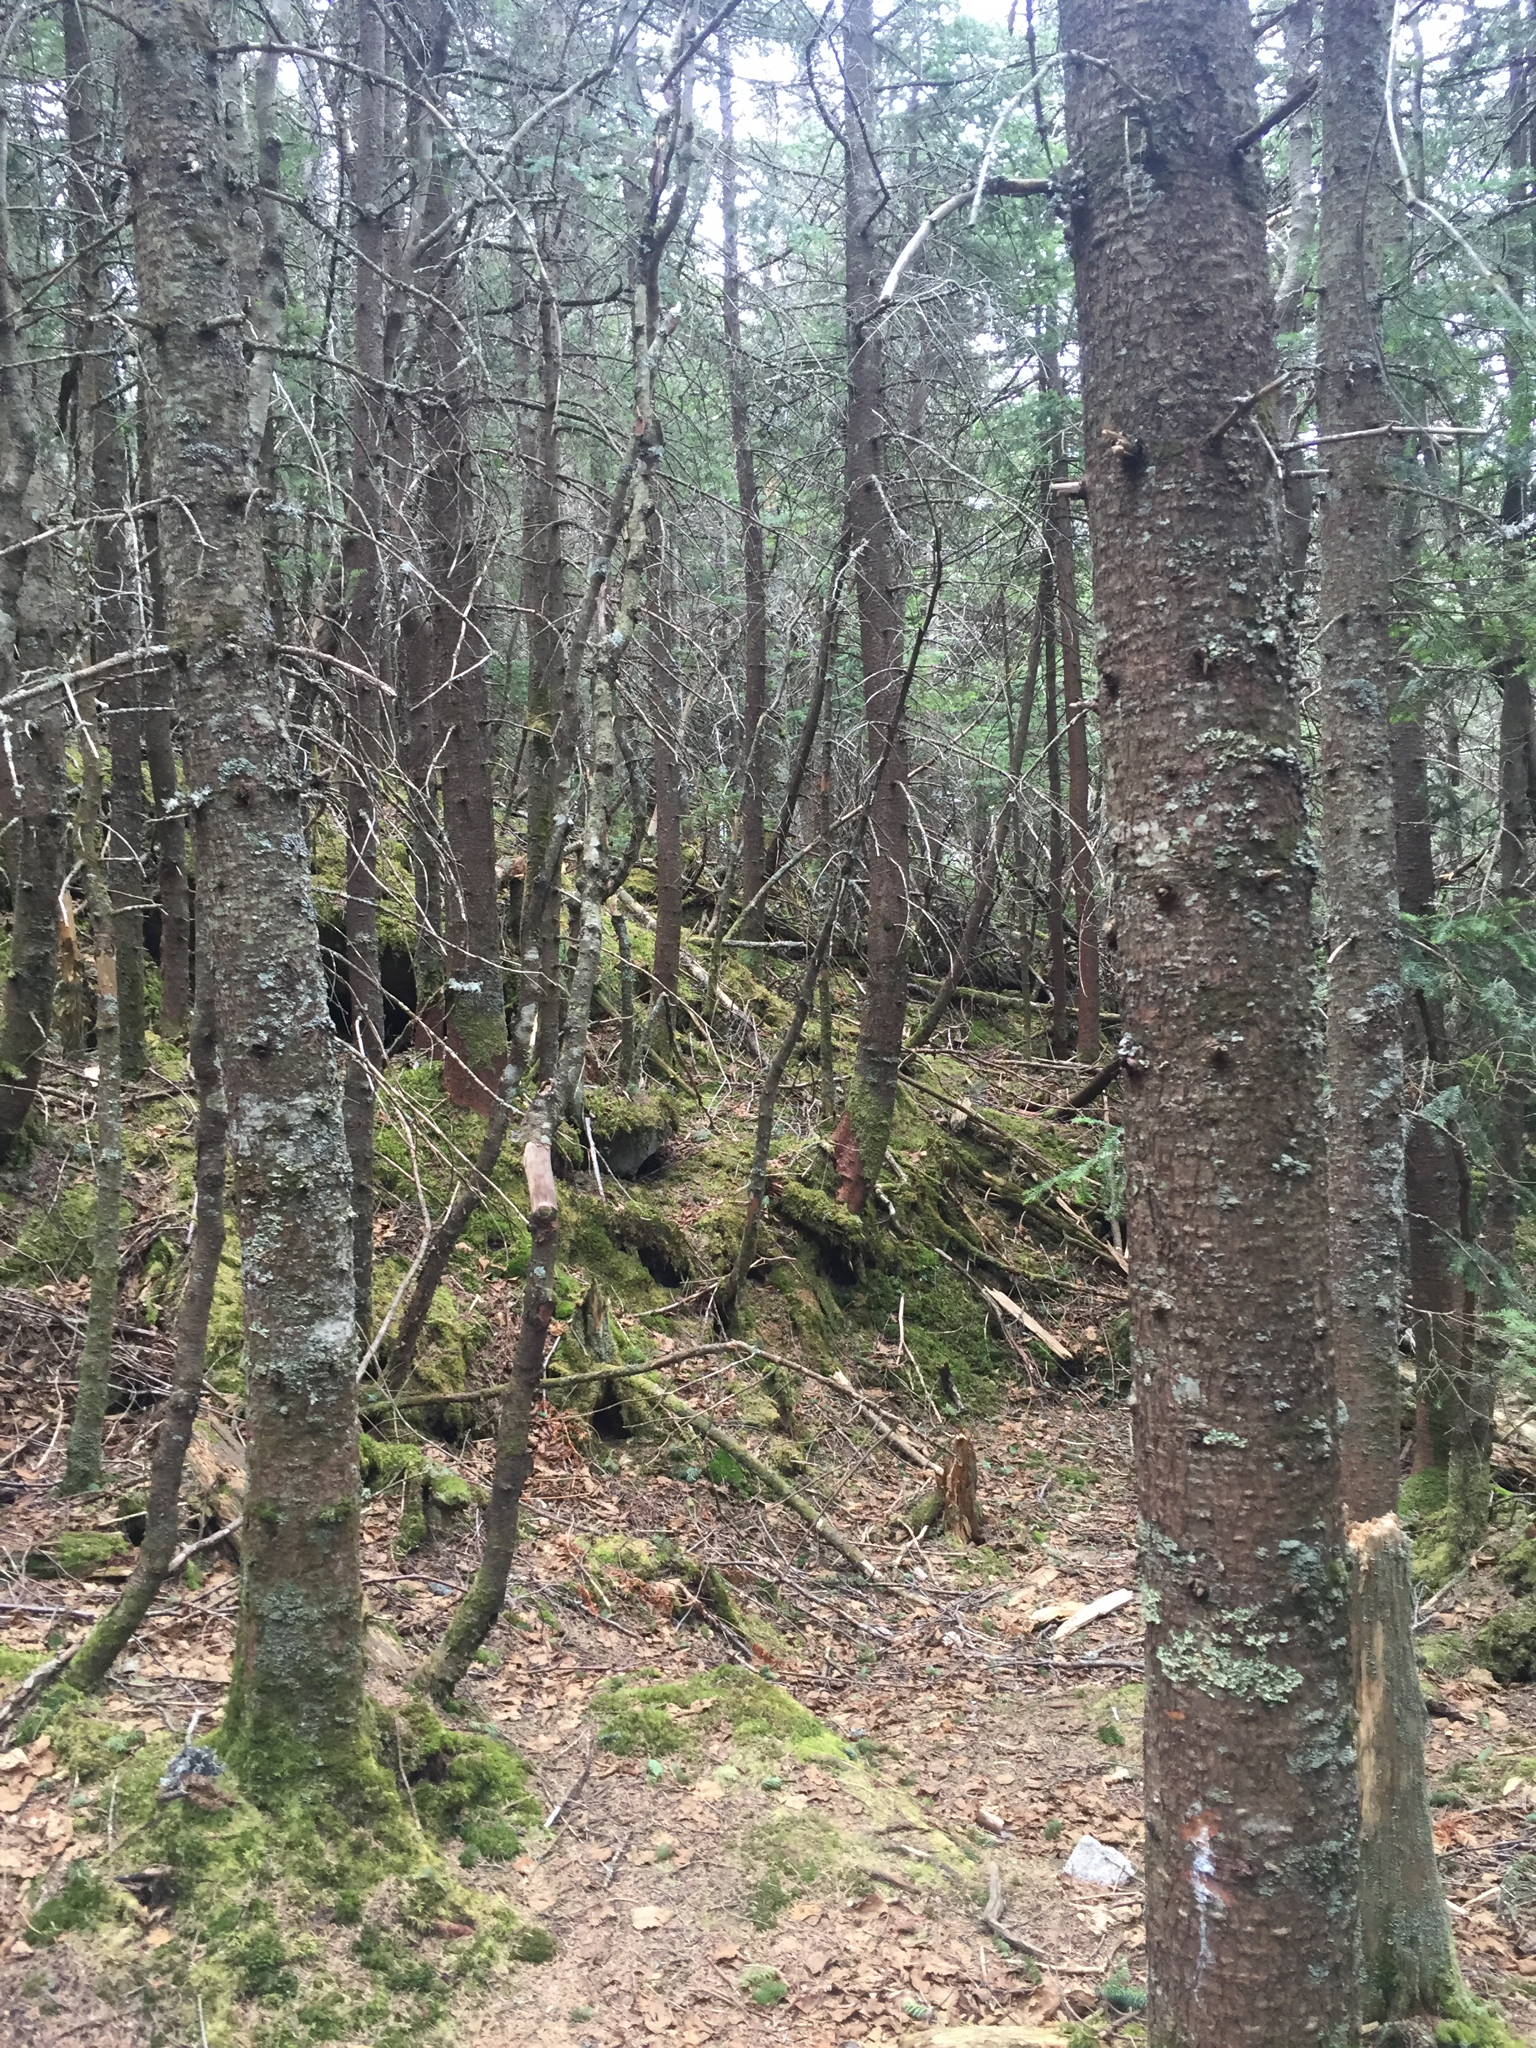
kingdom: Plantae
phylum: Tracheophyta
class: Pinopsida
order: Pinales
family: Pinaceae
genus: Abies
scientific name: Abies balsamea
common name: Balsam fir
